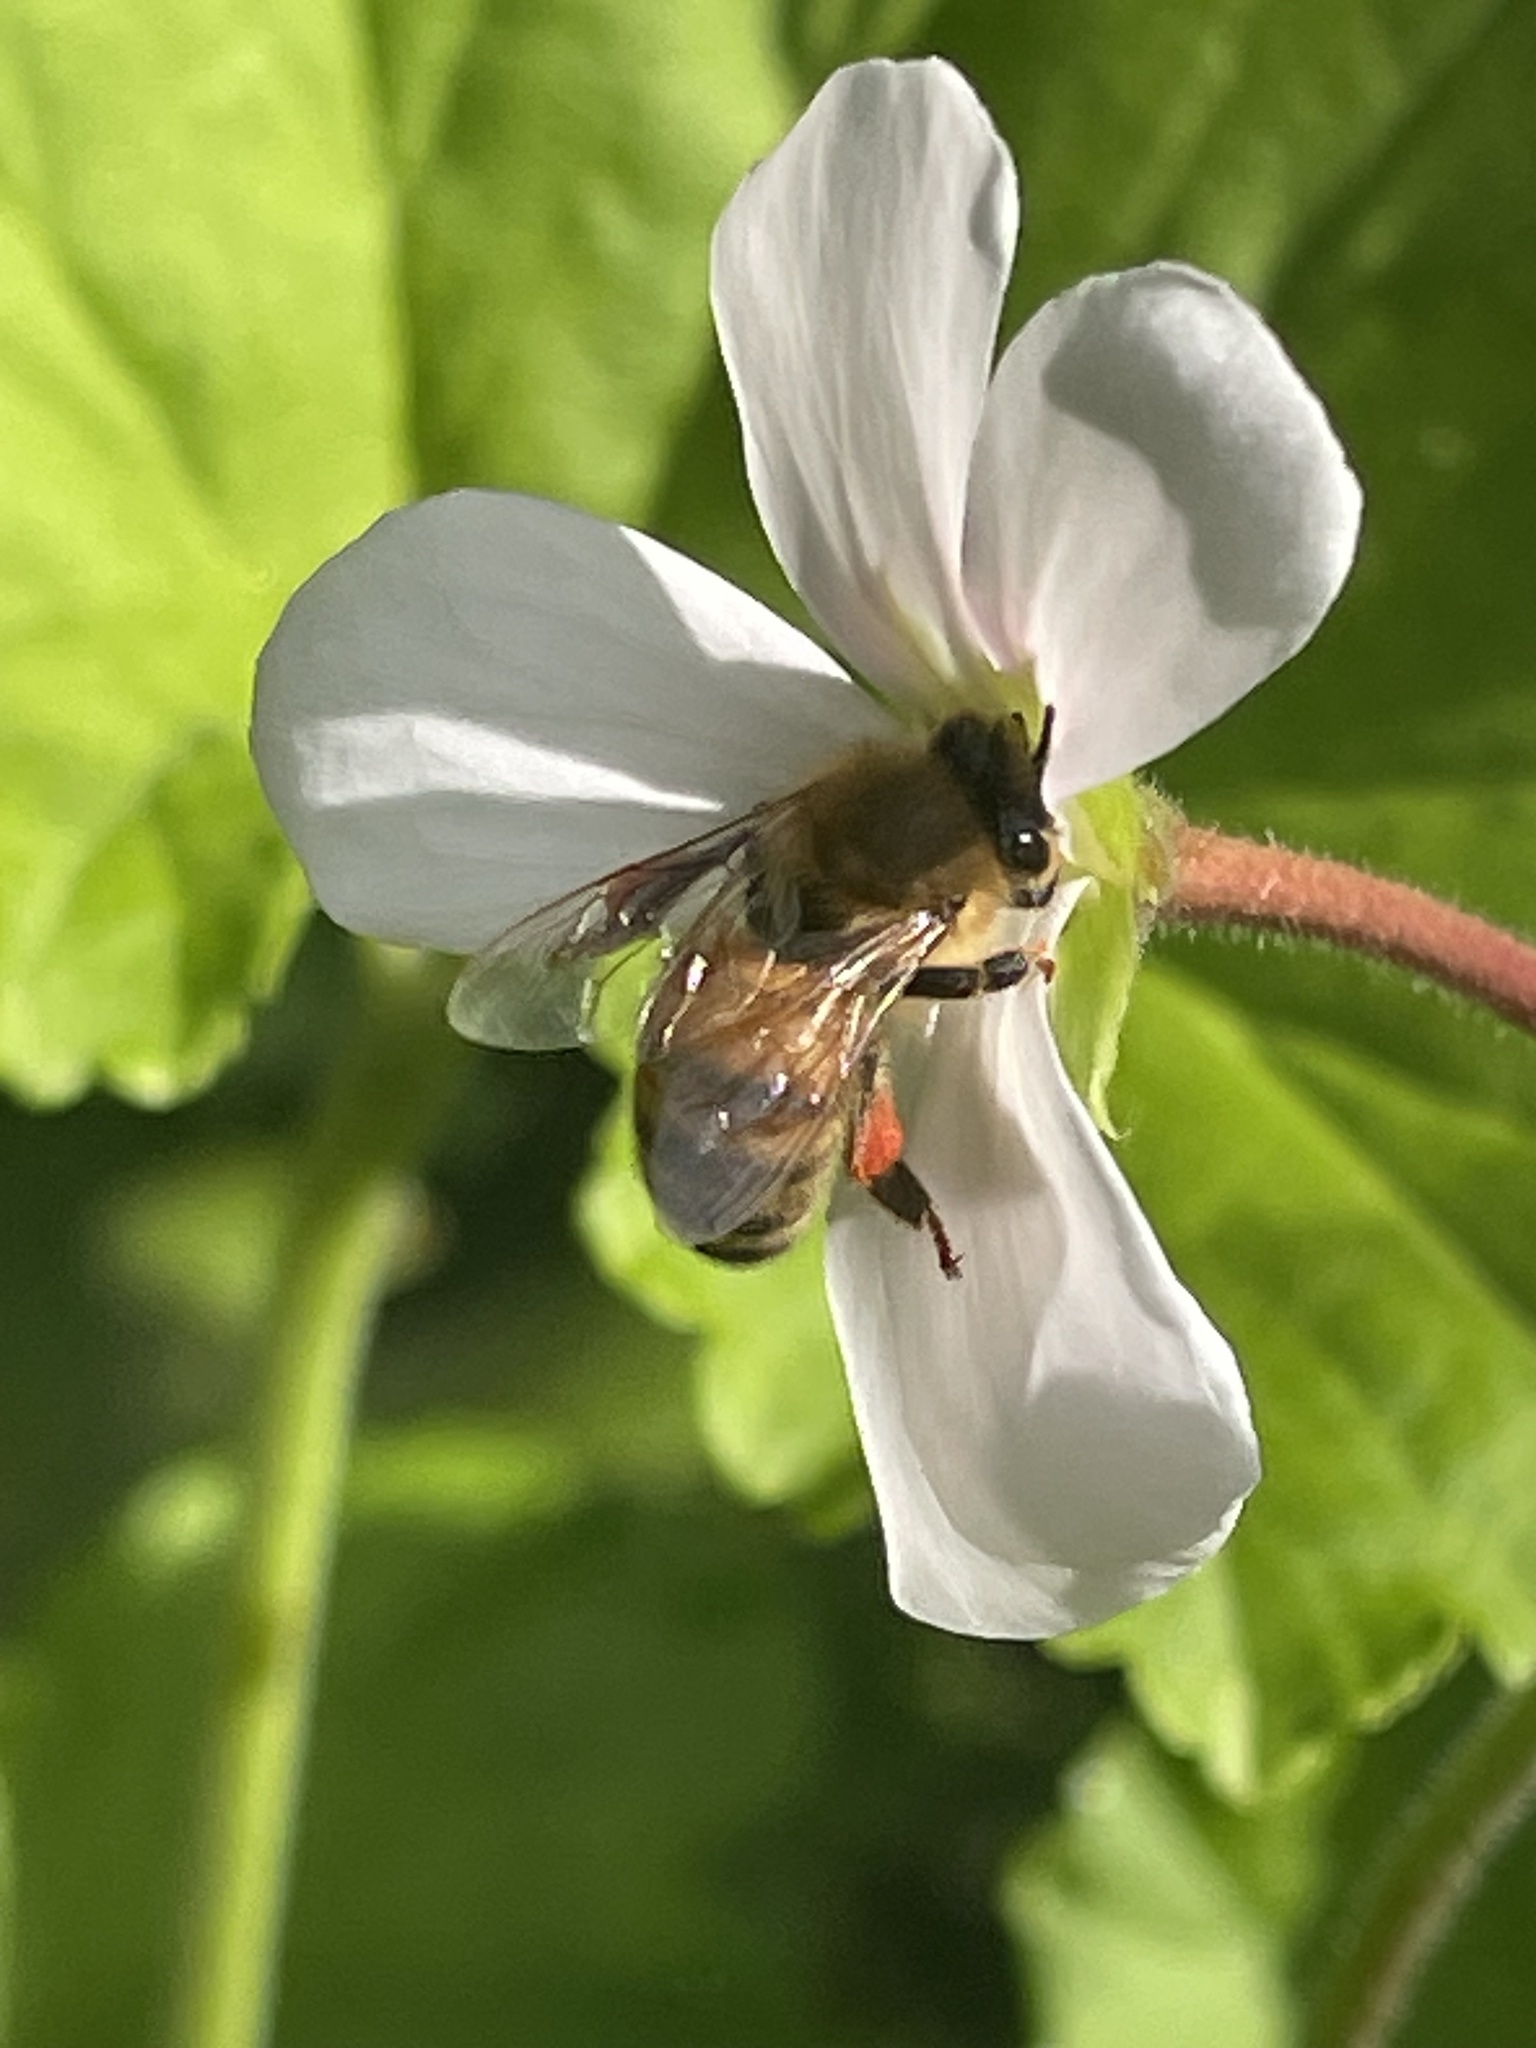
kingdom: Animalia
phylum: Arthropoda
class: Insecta
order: Hymenoptera
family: Apidae
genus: Apis
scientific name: Apis mellifera
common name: Honey bee
